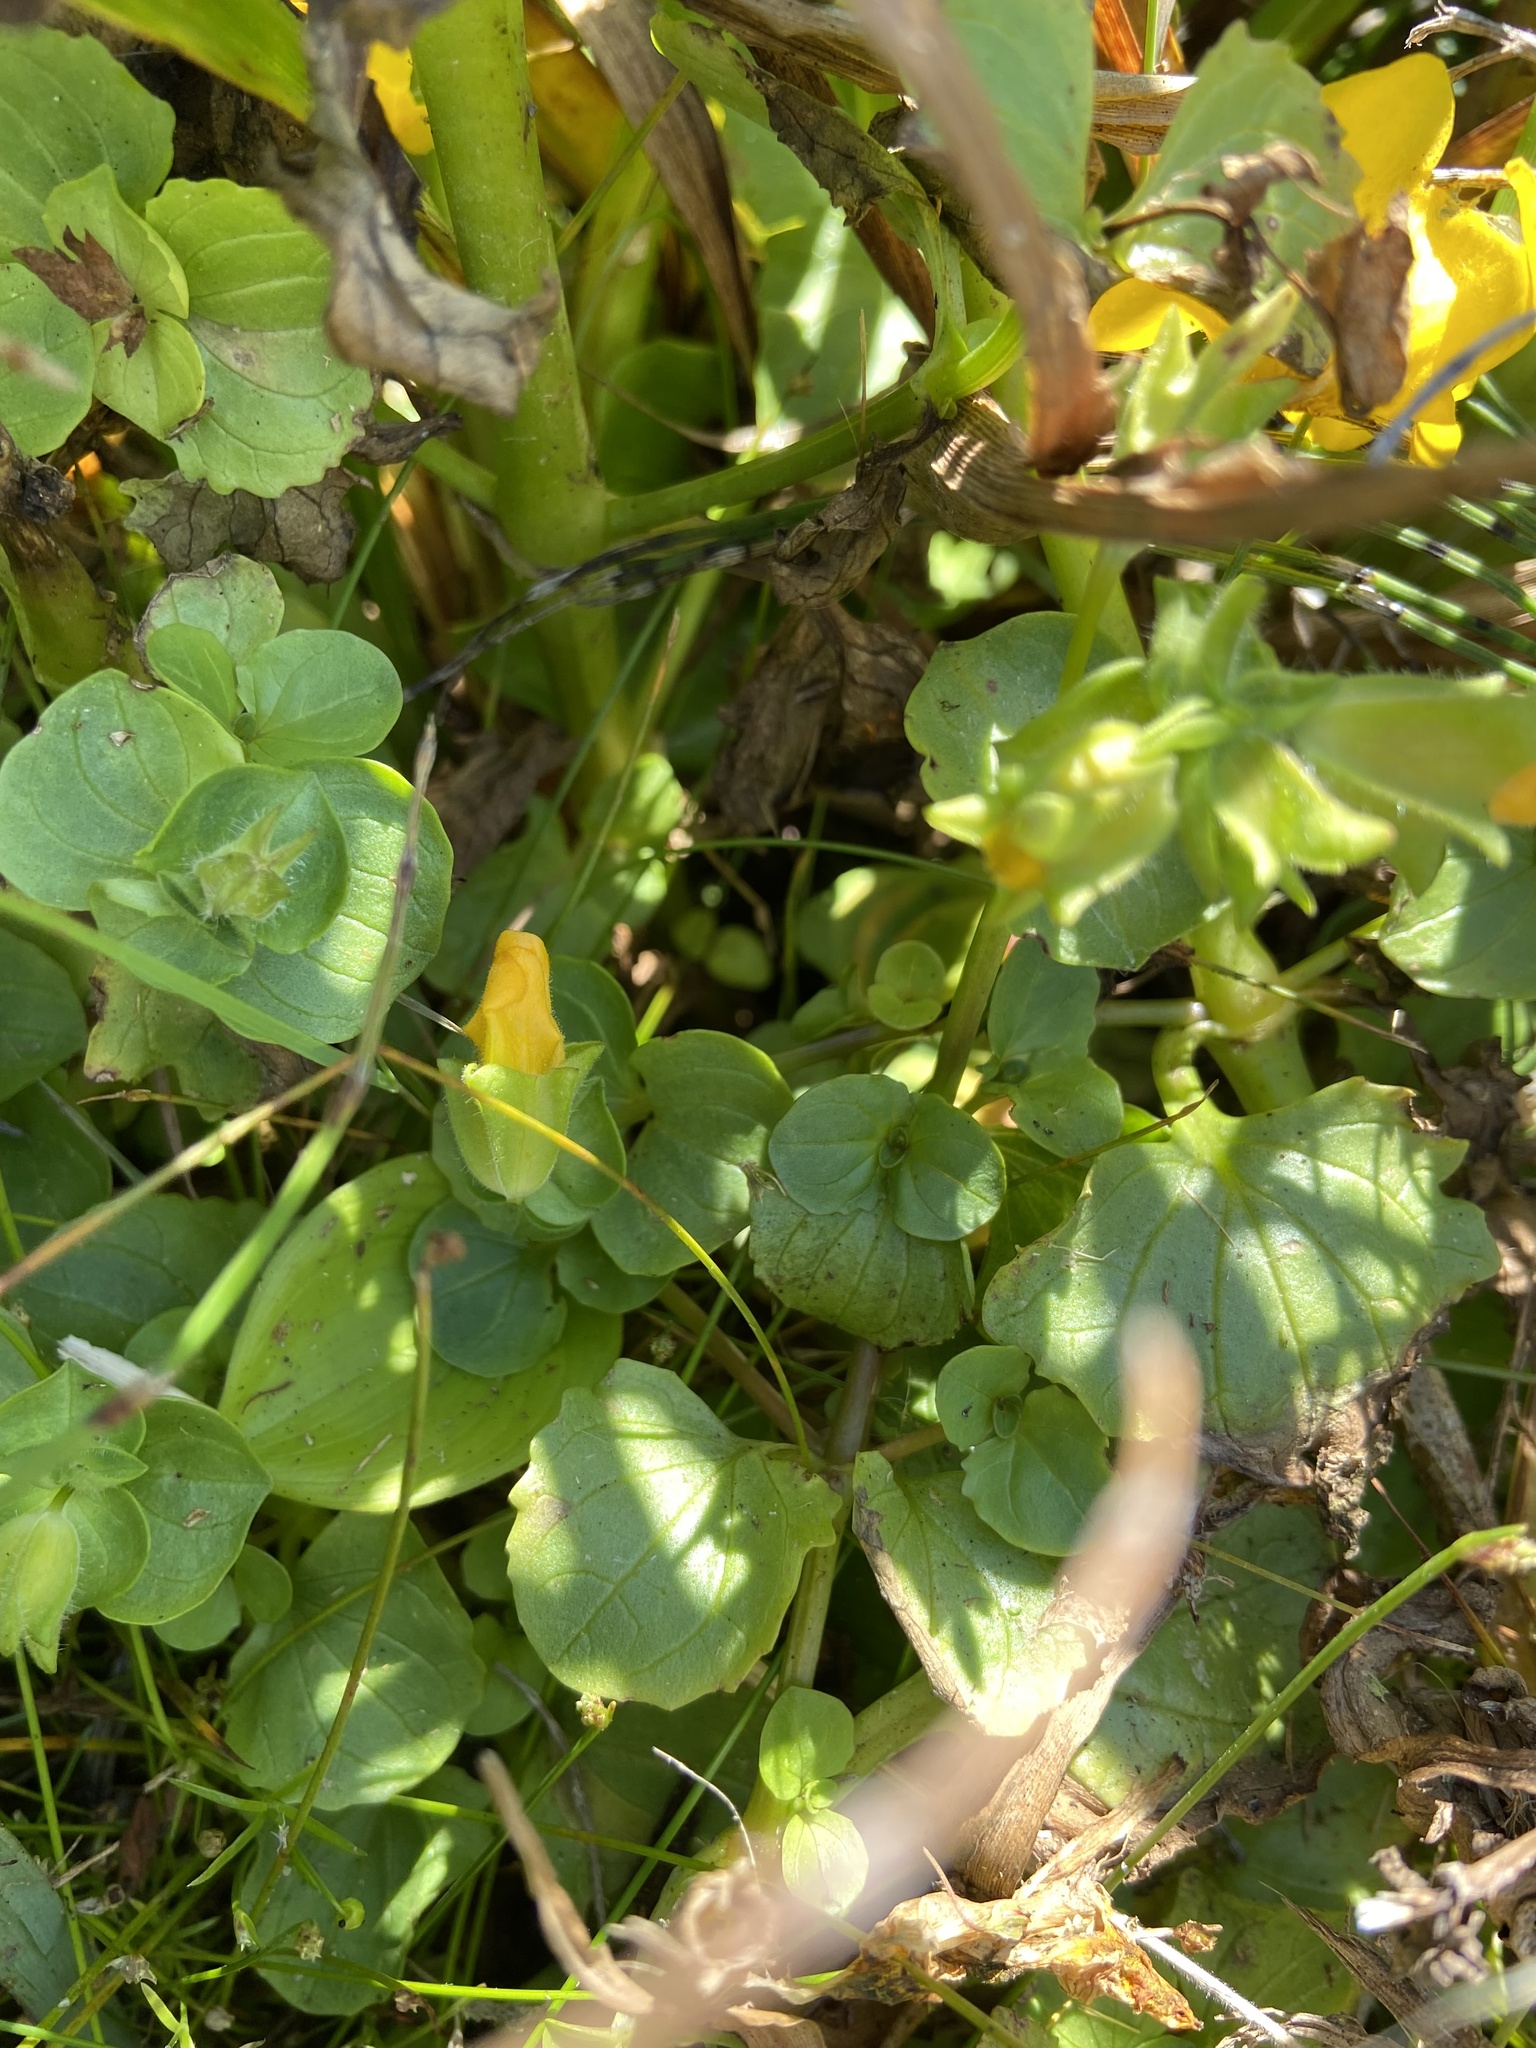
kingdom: Plantae
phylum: Tracheophyta
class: Magnoliopsida
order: Lamiales
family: Phrymaceae
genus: Erythranthe
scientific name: Erythranthe grandis
